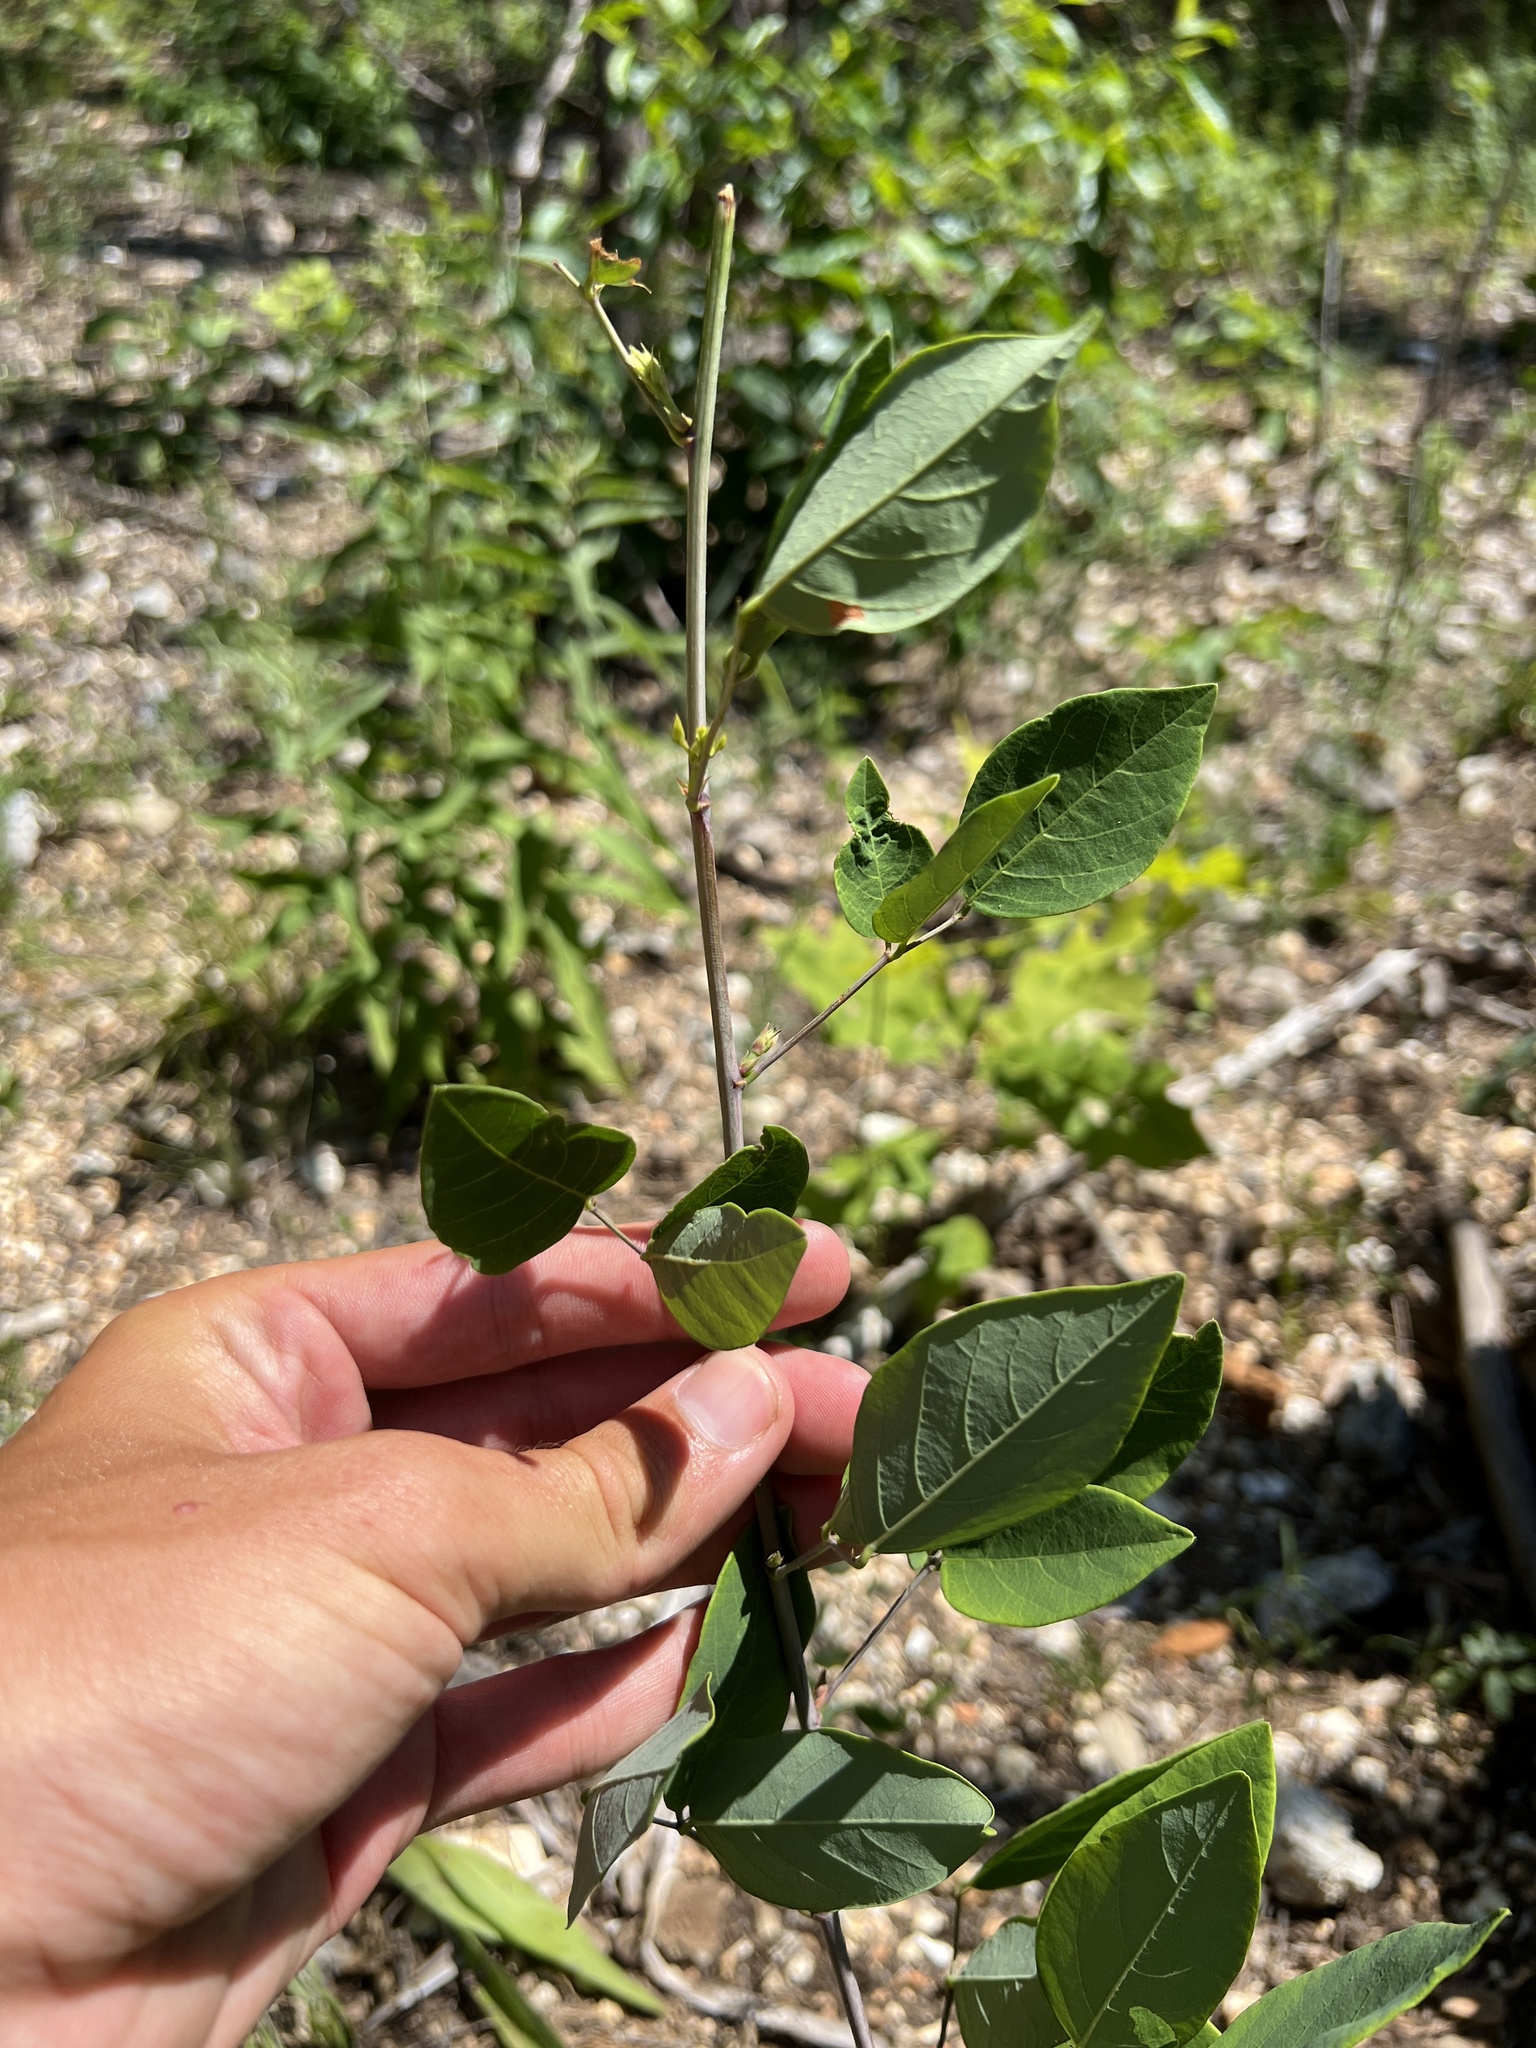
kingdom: Plantae
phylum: Tracheophyta
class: Magnoliopsida
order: Fabales
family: Fabaceae
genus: Desmodium
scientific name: Desmodium laevigatum
